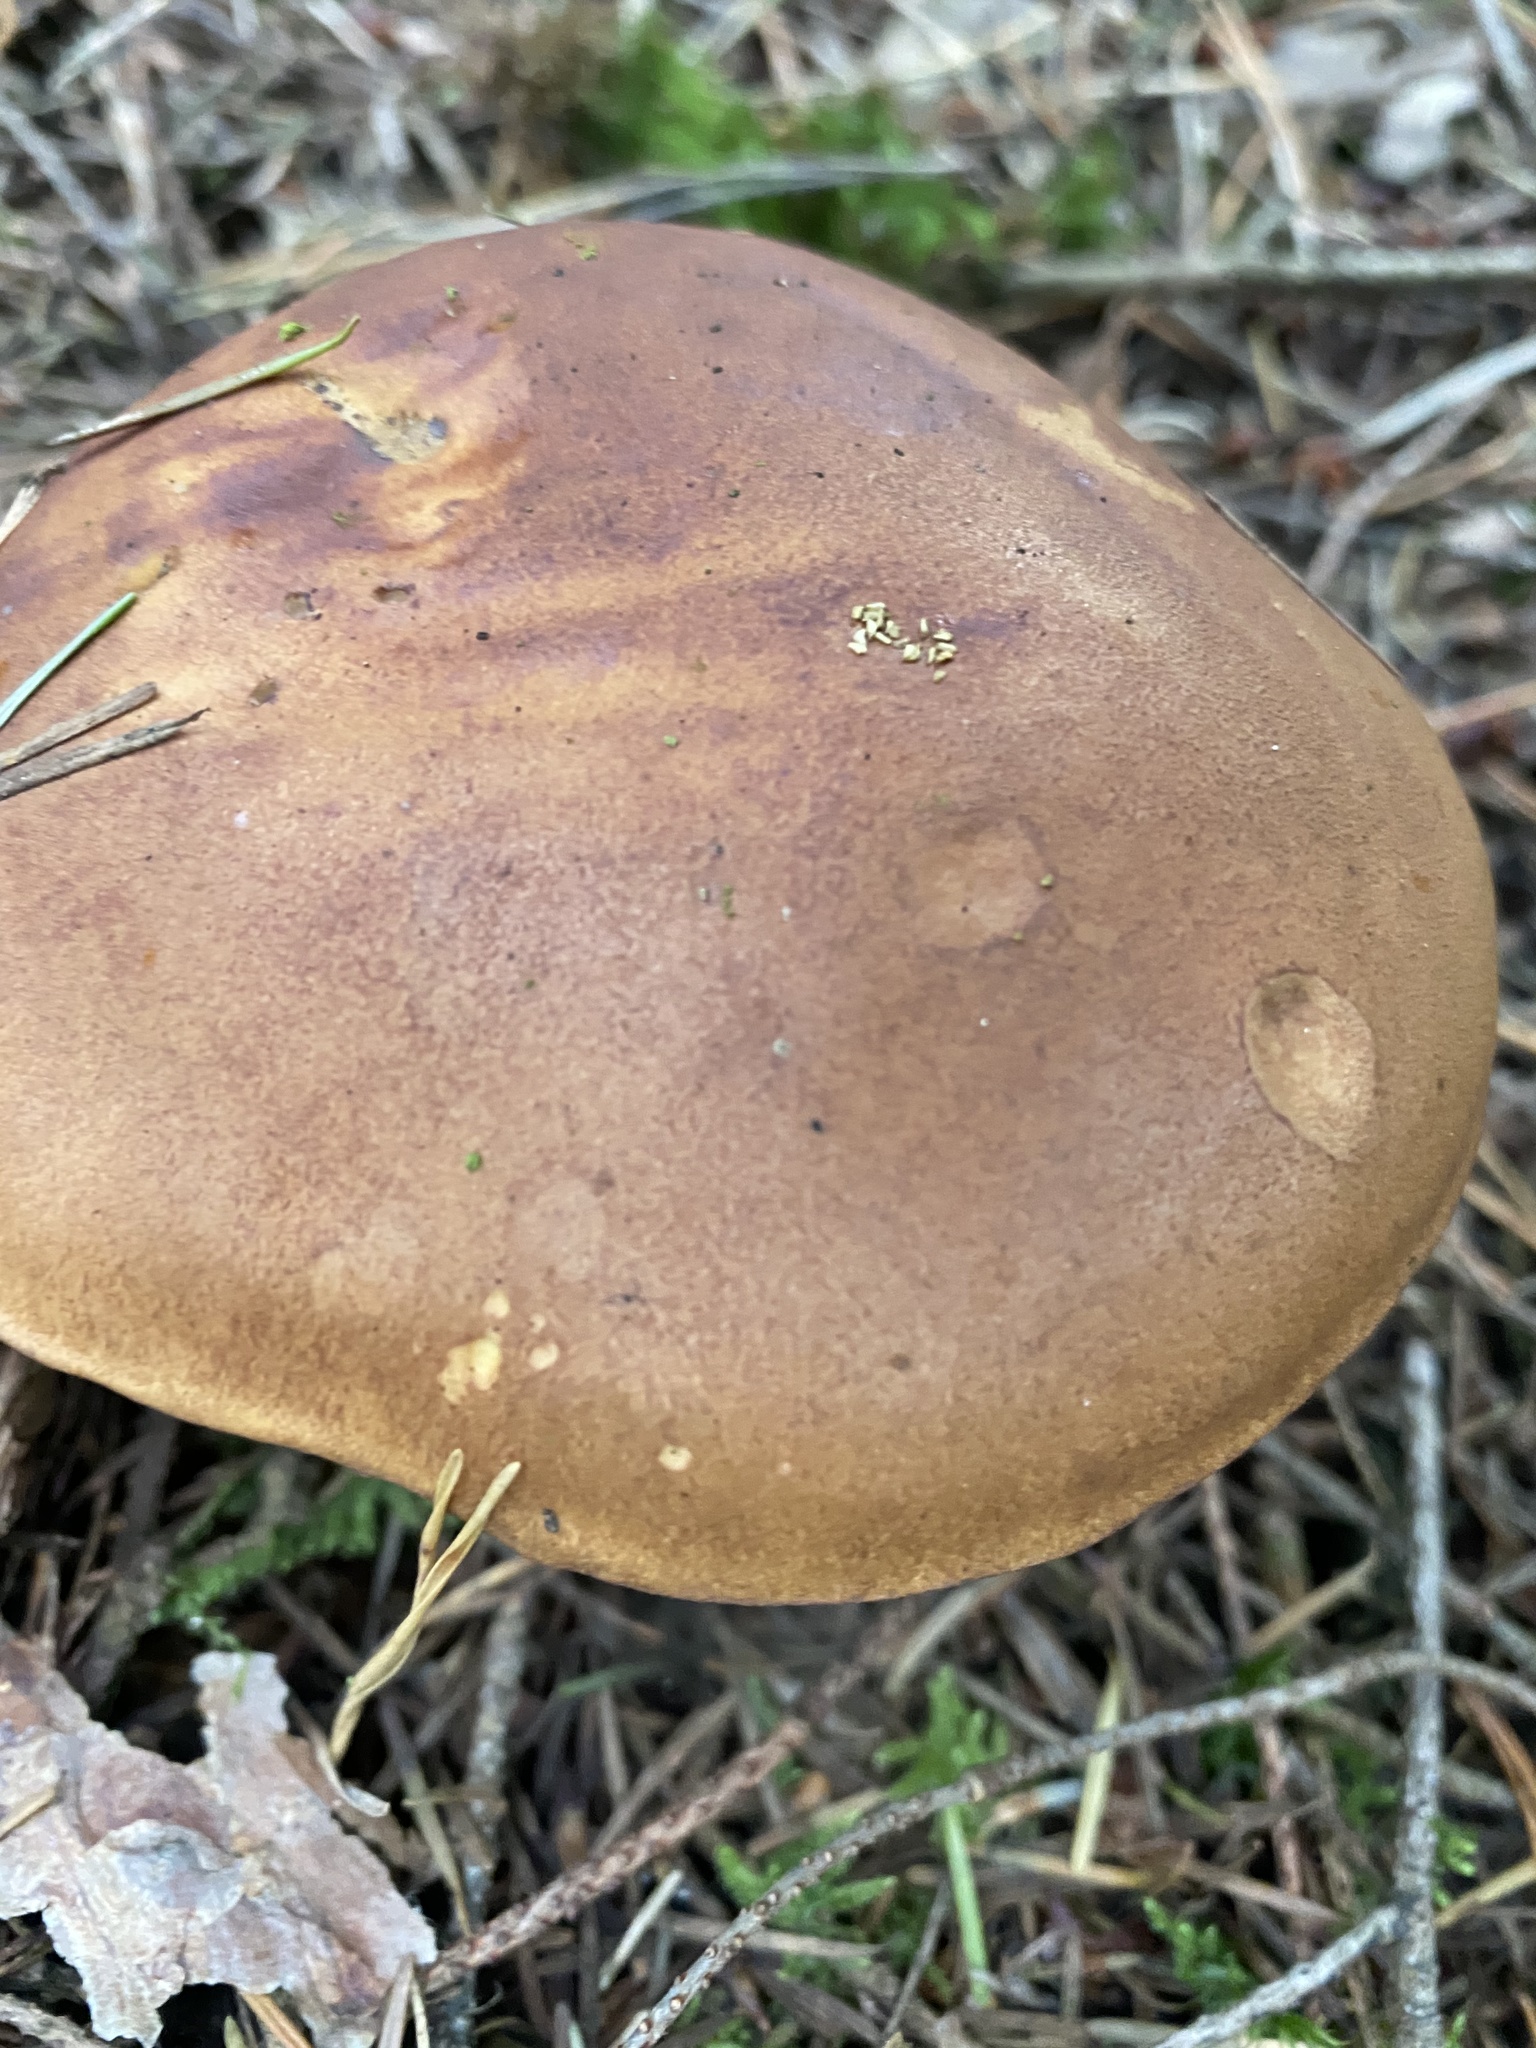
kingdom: Fungi
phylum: Basidiomycota
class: Agaricomycetes
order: Boletales
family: Boletaceae
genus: Imleria
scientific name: Imleria badia
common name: Bay bolete
